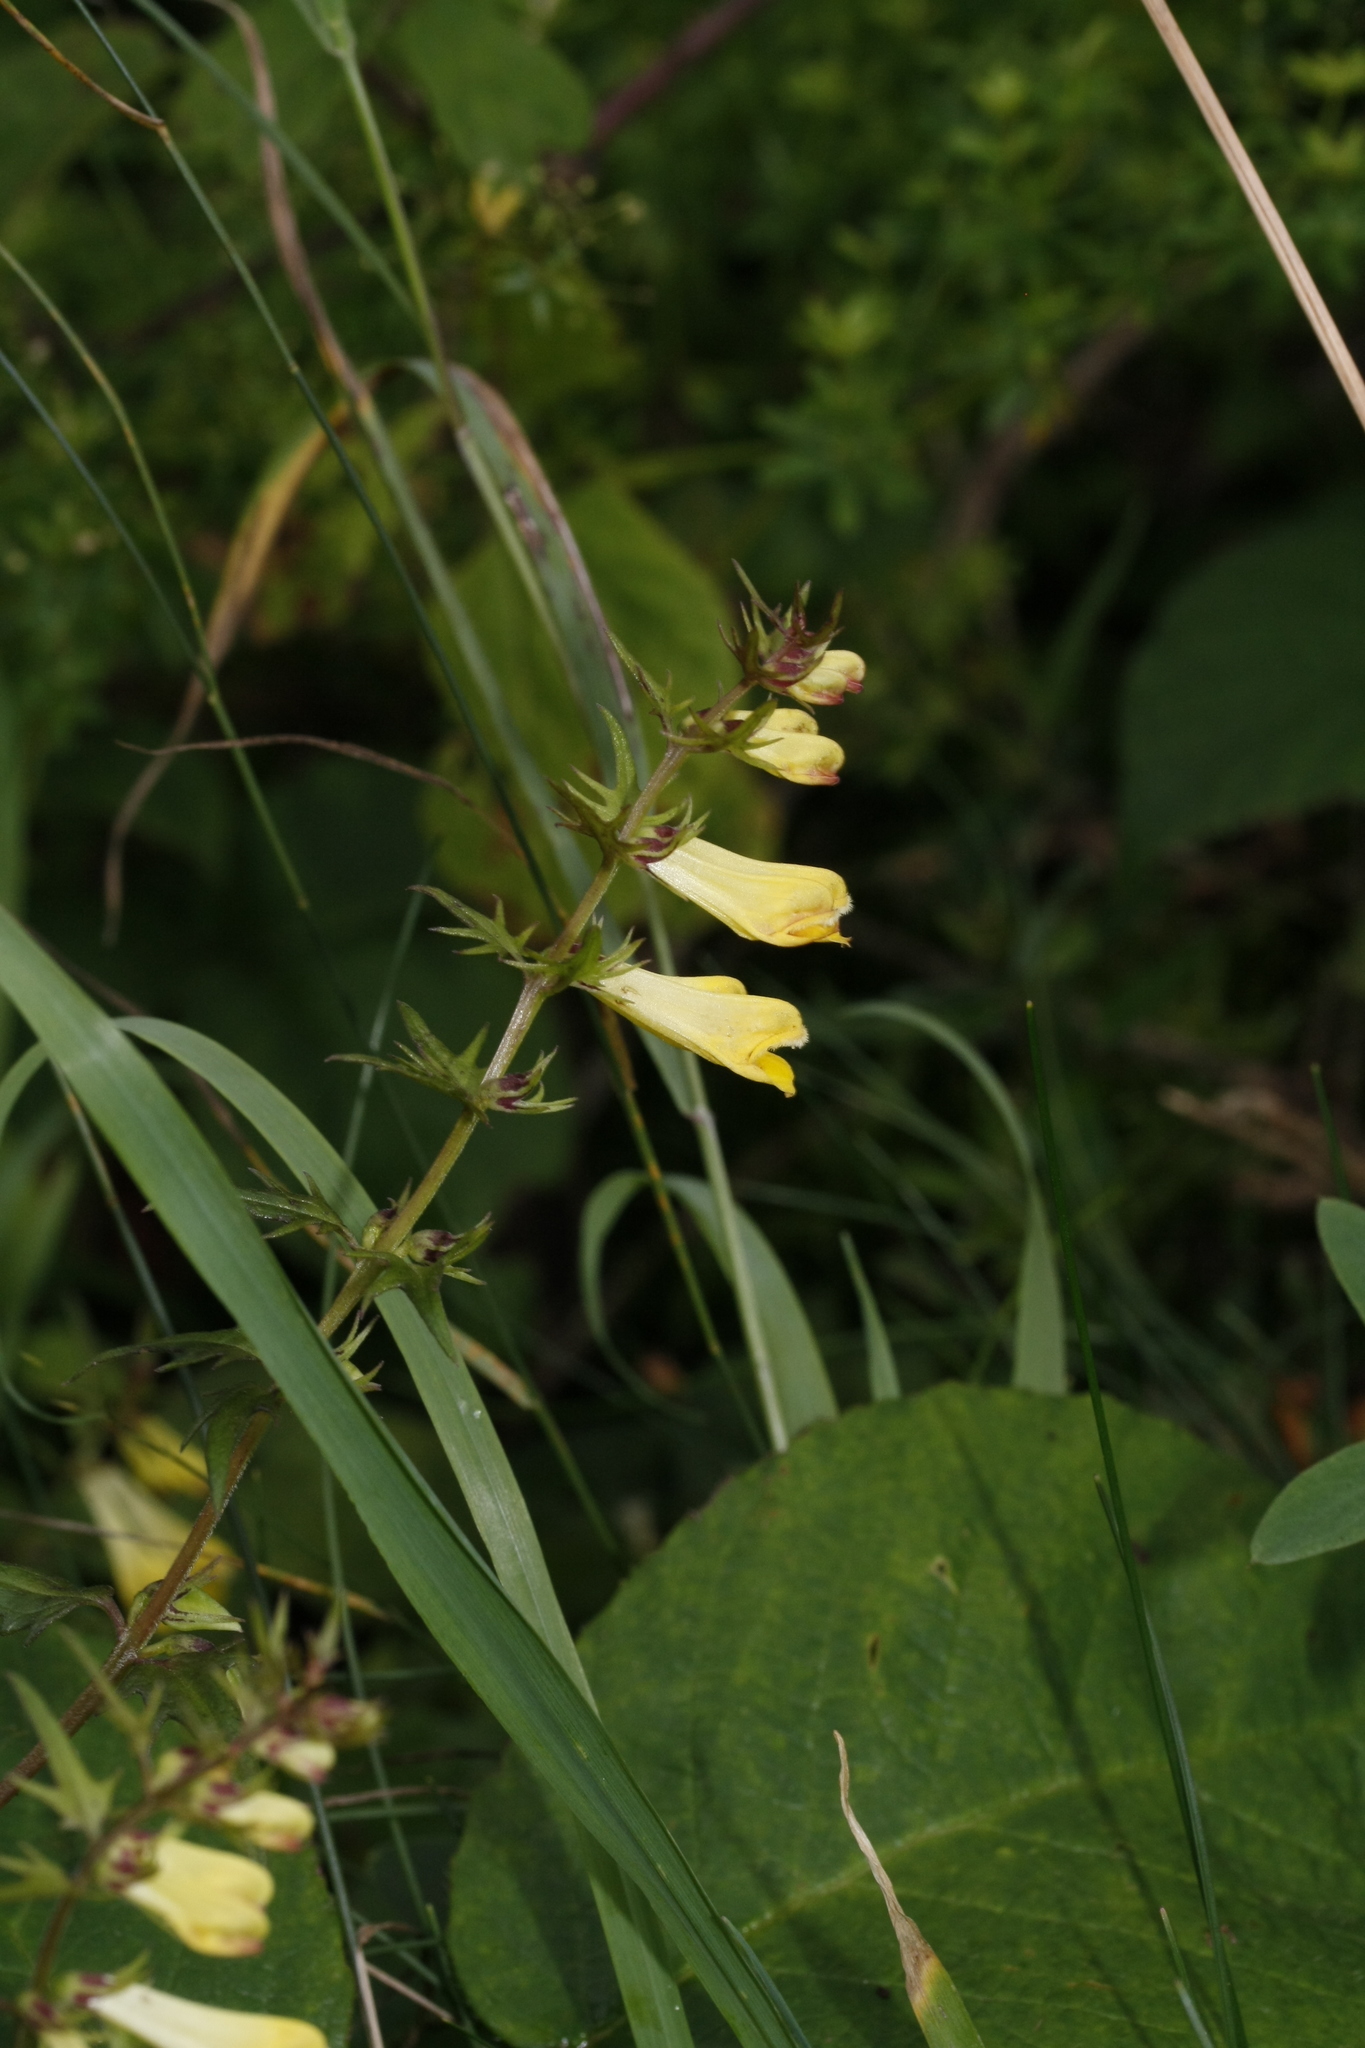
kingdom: Plantae
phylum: Tracheophyta
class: Magnoliopsida
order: Lamiales
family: Orobanchaceae
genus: Melampyrum
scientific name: Melampyrum pratense
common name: Common cow-wheat
